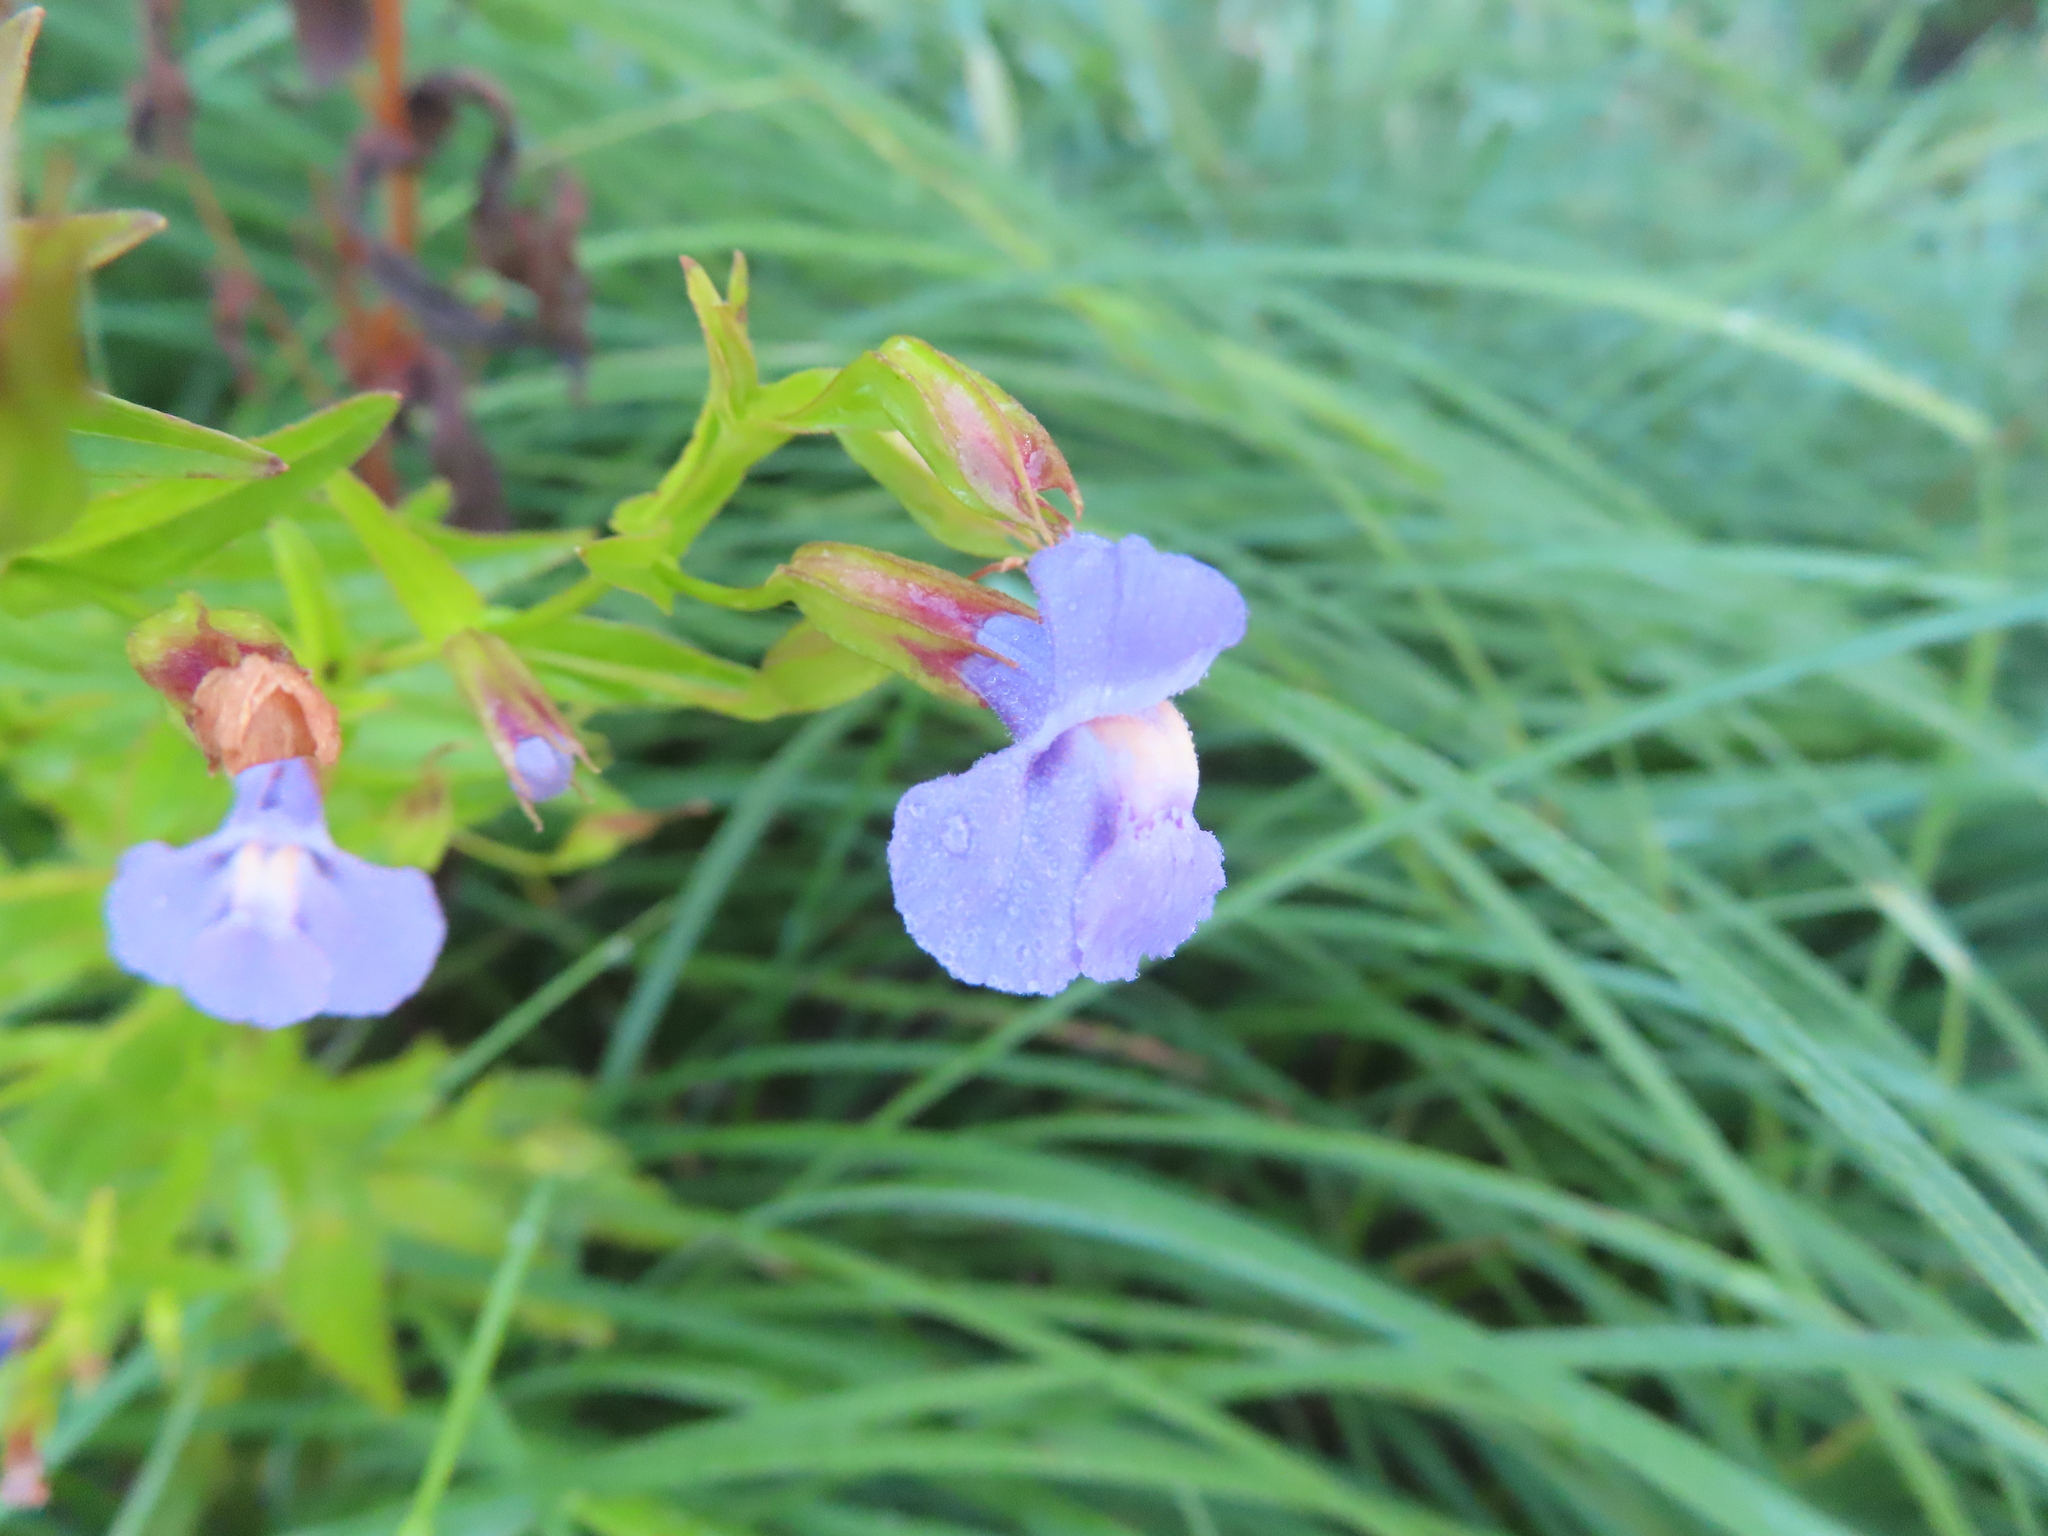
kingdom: Plantae
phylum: Tracheophyta
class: Magnoliopsida
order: Lamiales
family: Phrymaceae
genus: Mimulus
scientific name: Mimulus ringens
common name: Allegheny monkeyflower
